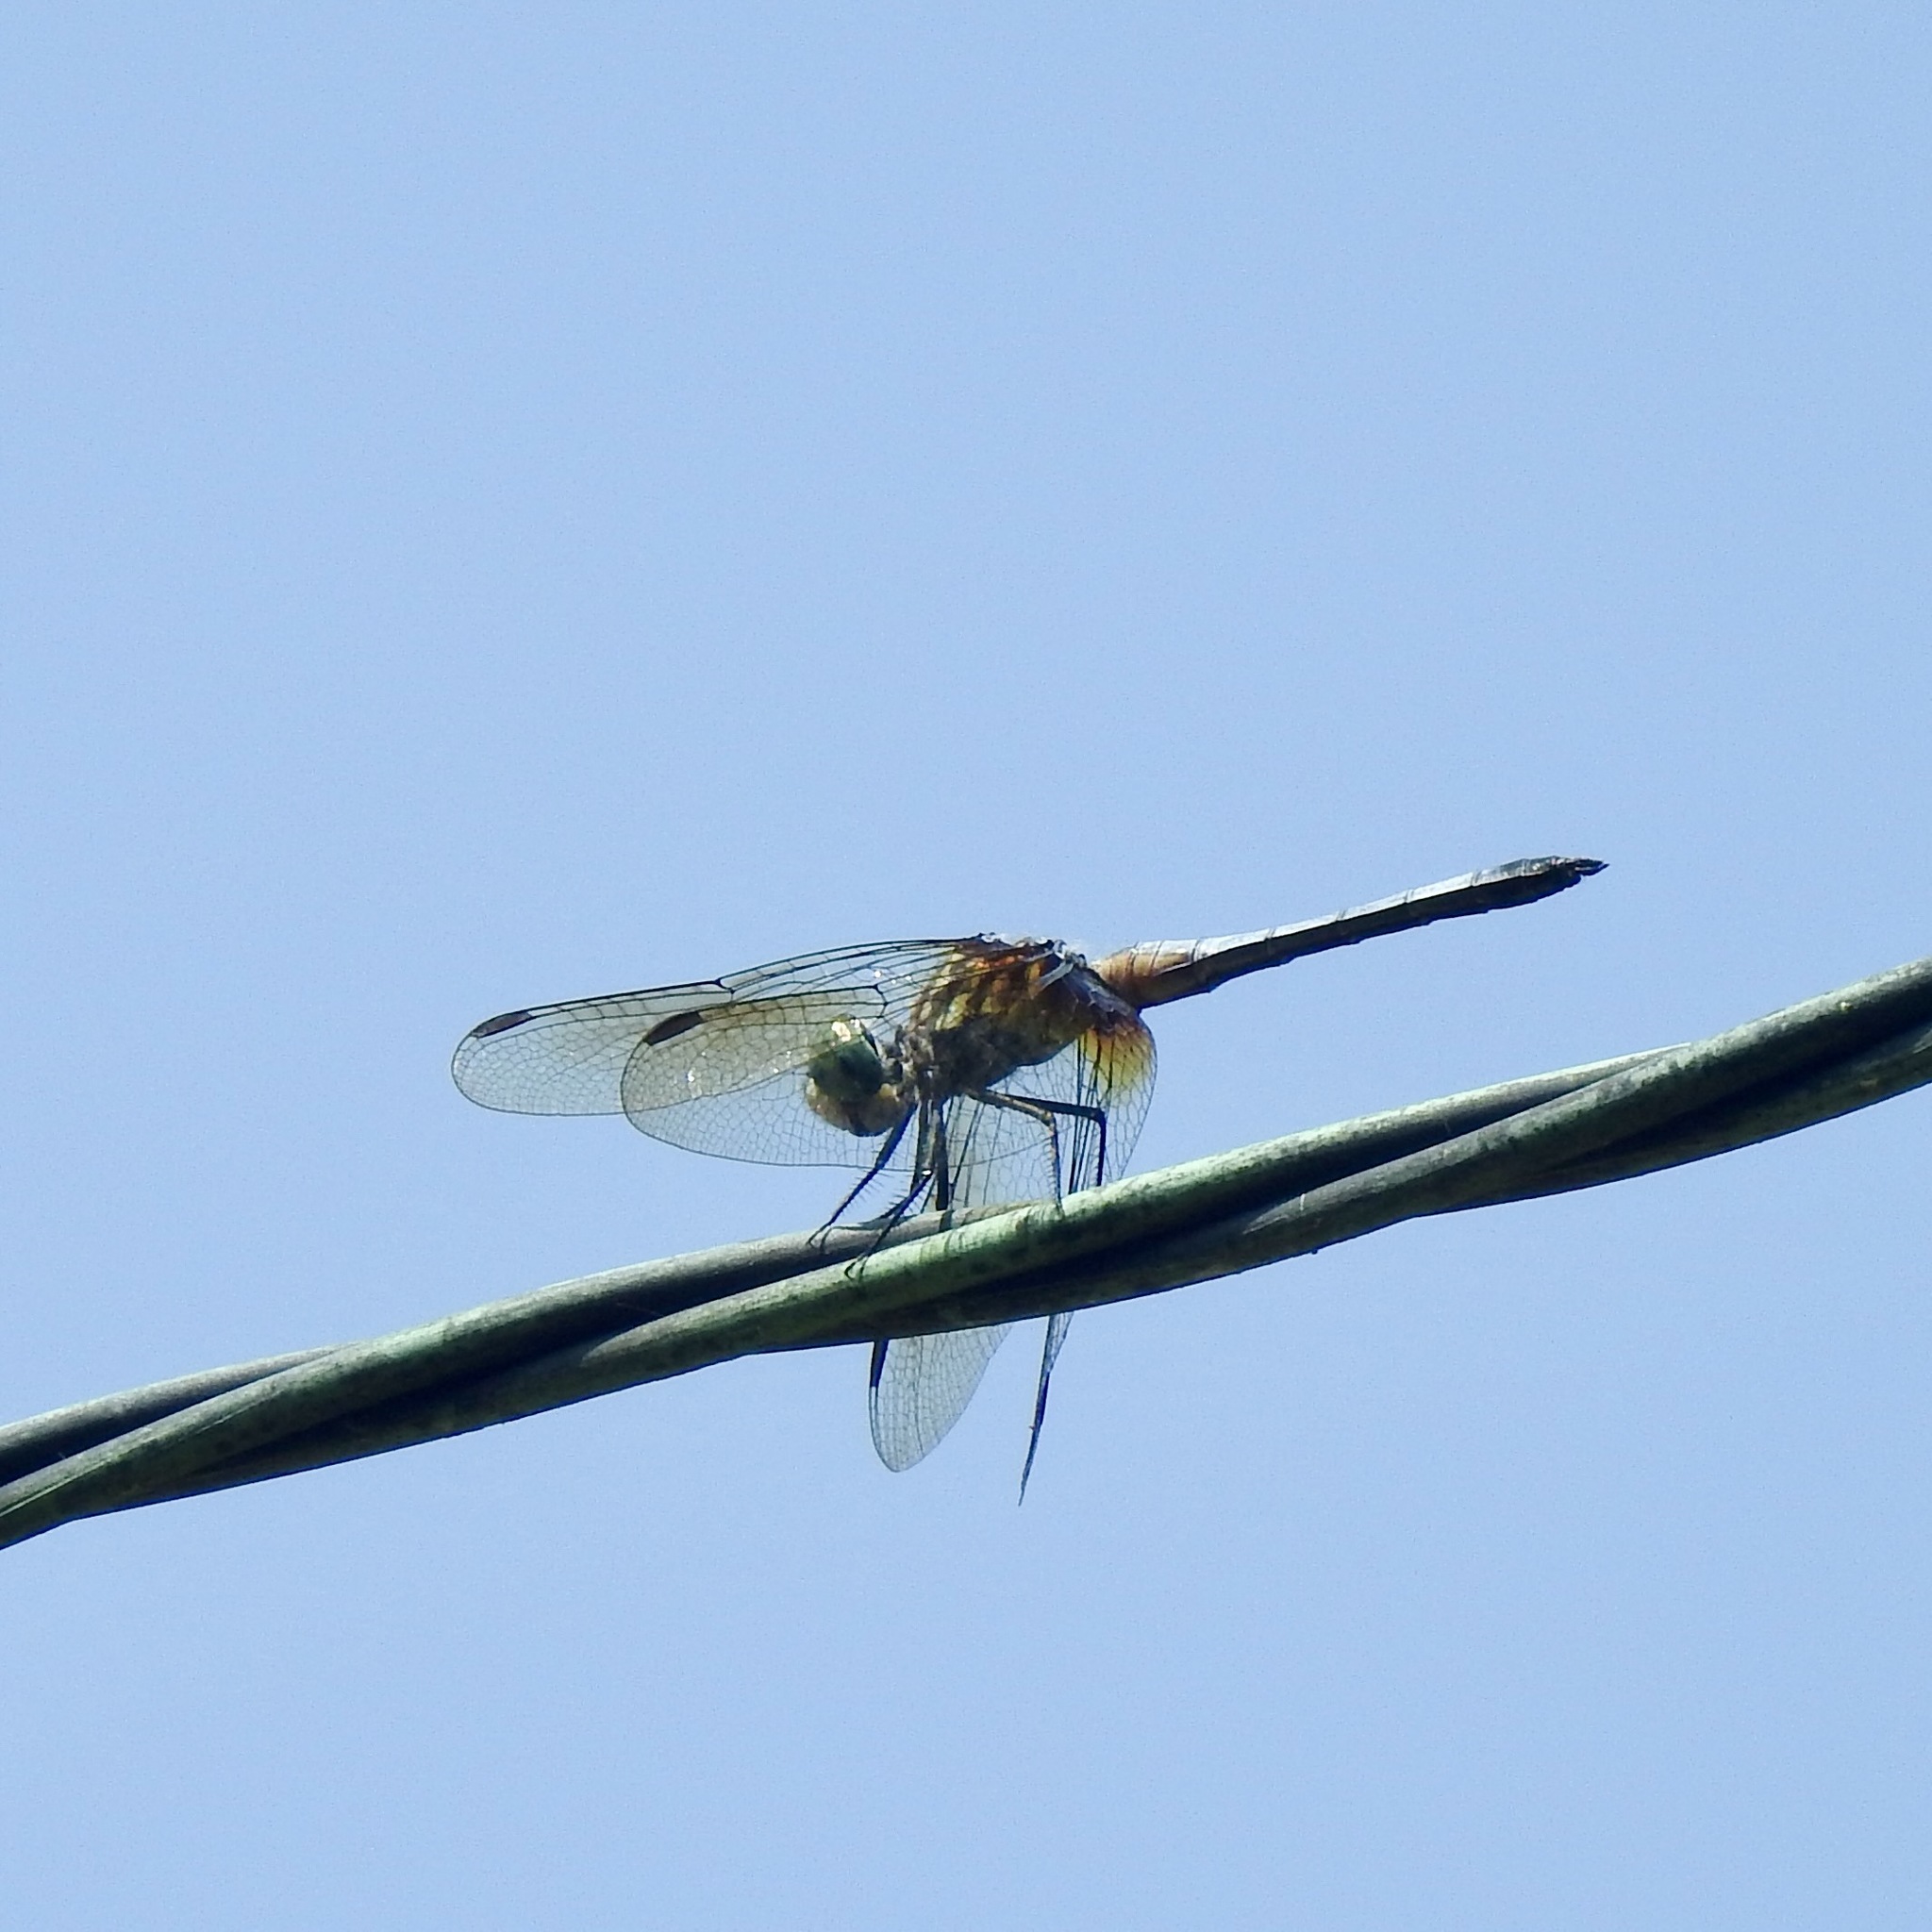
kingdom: Animalia
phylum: Arthropoda
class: Insecta
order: Odonata
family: Libellulidae
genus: Pachydiplax
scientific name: Pachydiplax longipennis
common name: Blue dasher
